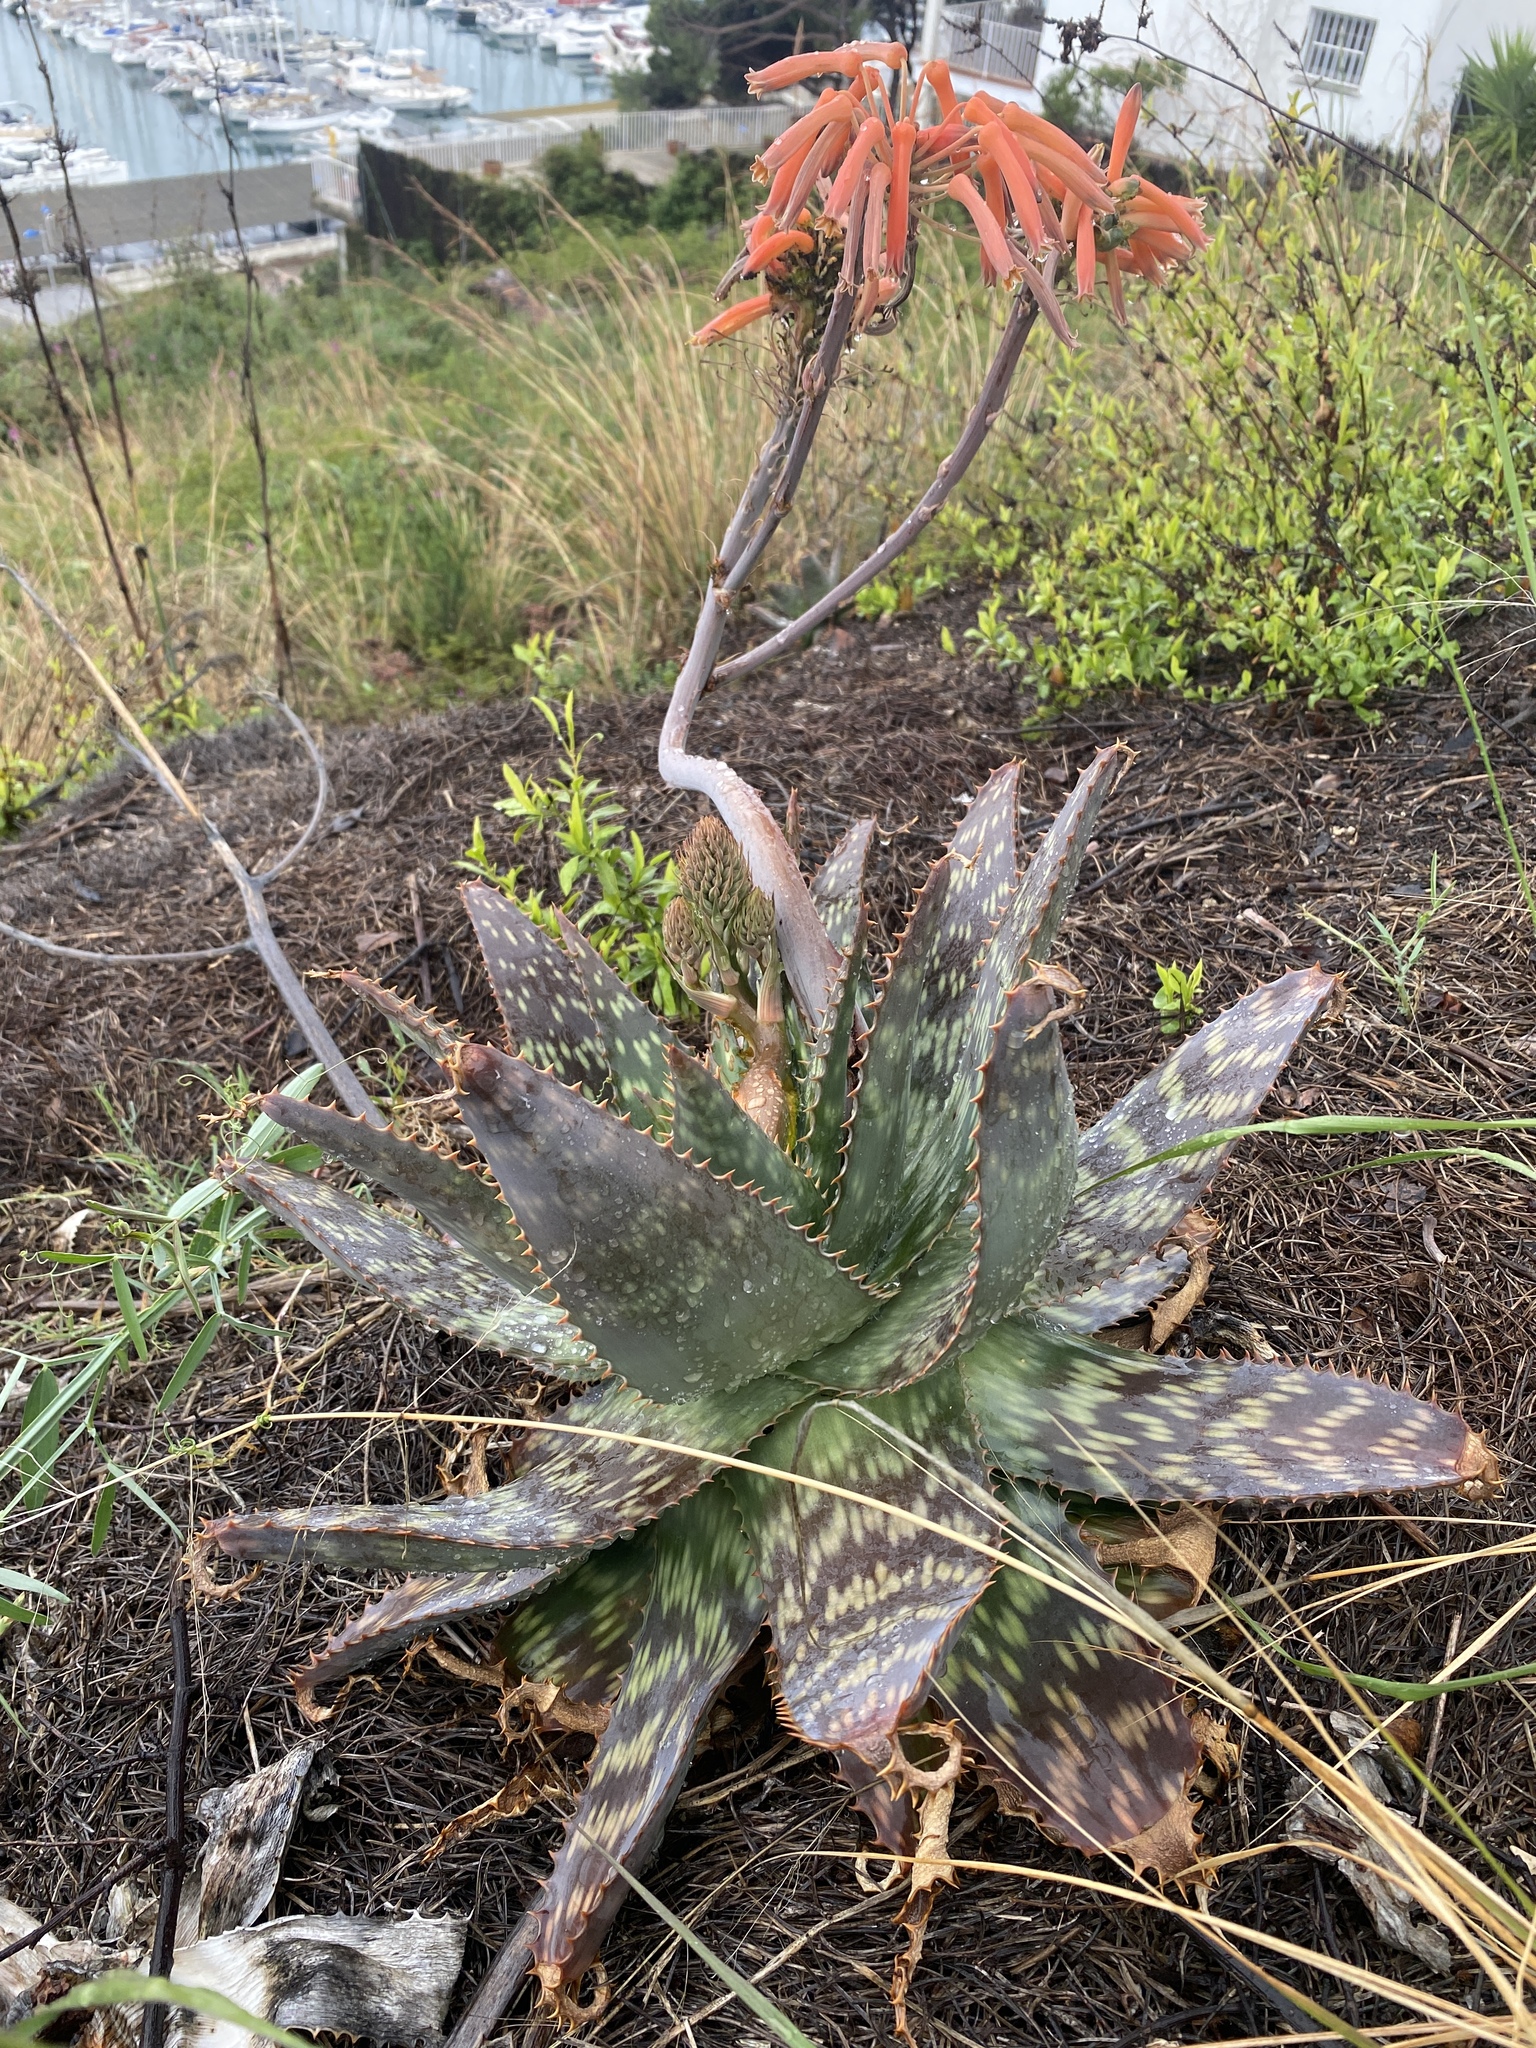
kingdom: Plantae
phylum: Tracheophyta
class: Liliopsida
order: Asparagales
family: Asphodelaceae
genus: Aloe
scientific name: Aloe maculata
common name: Broadleaf aloe
